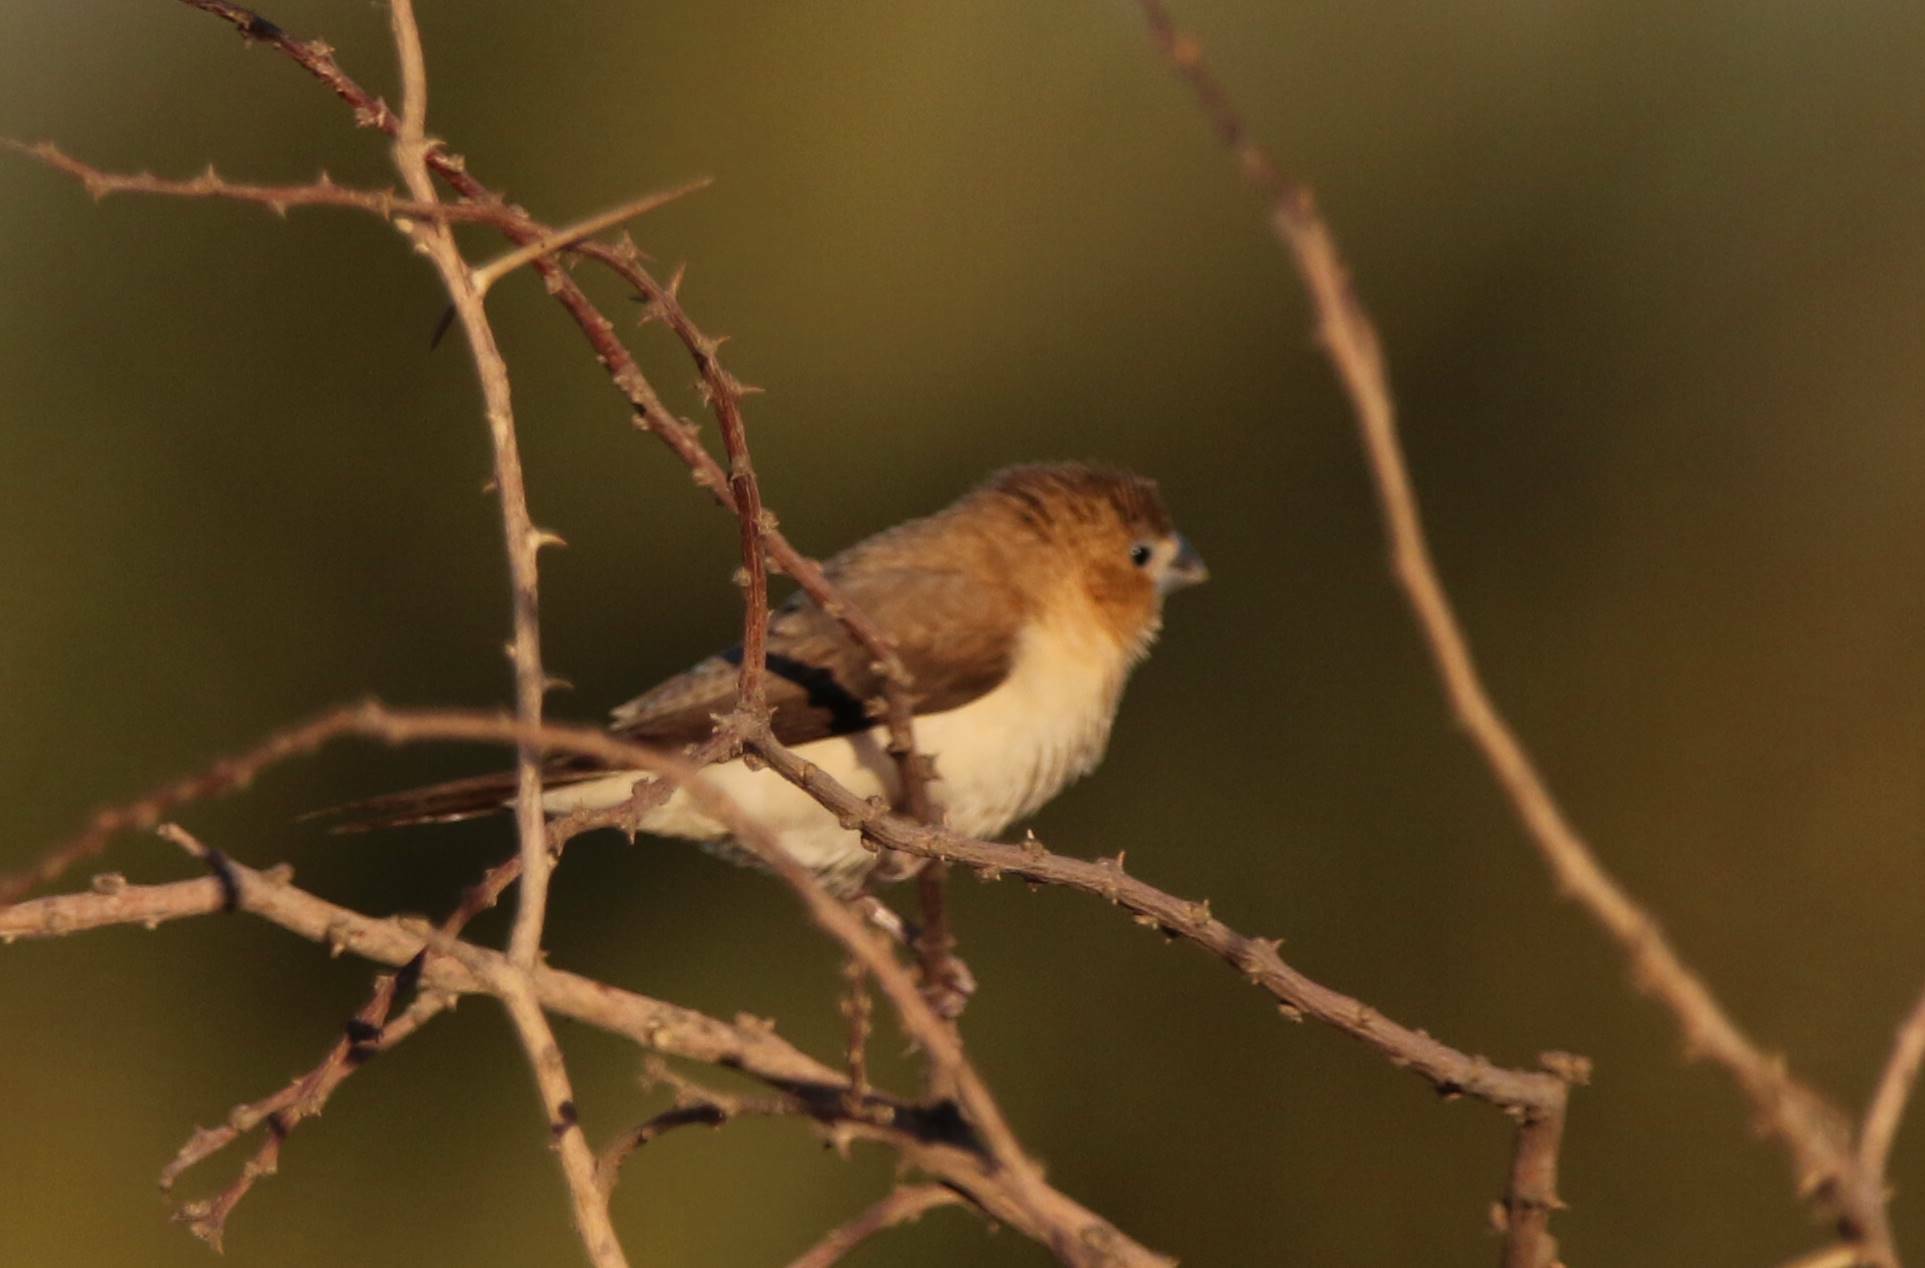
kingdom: Animalia
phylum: Chordata
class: Aves
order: Passeriformes
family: Estrildidae
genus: Euodice
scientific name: Euodice cantans
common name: African silverbill
